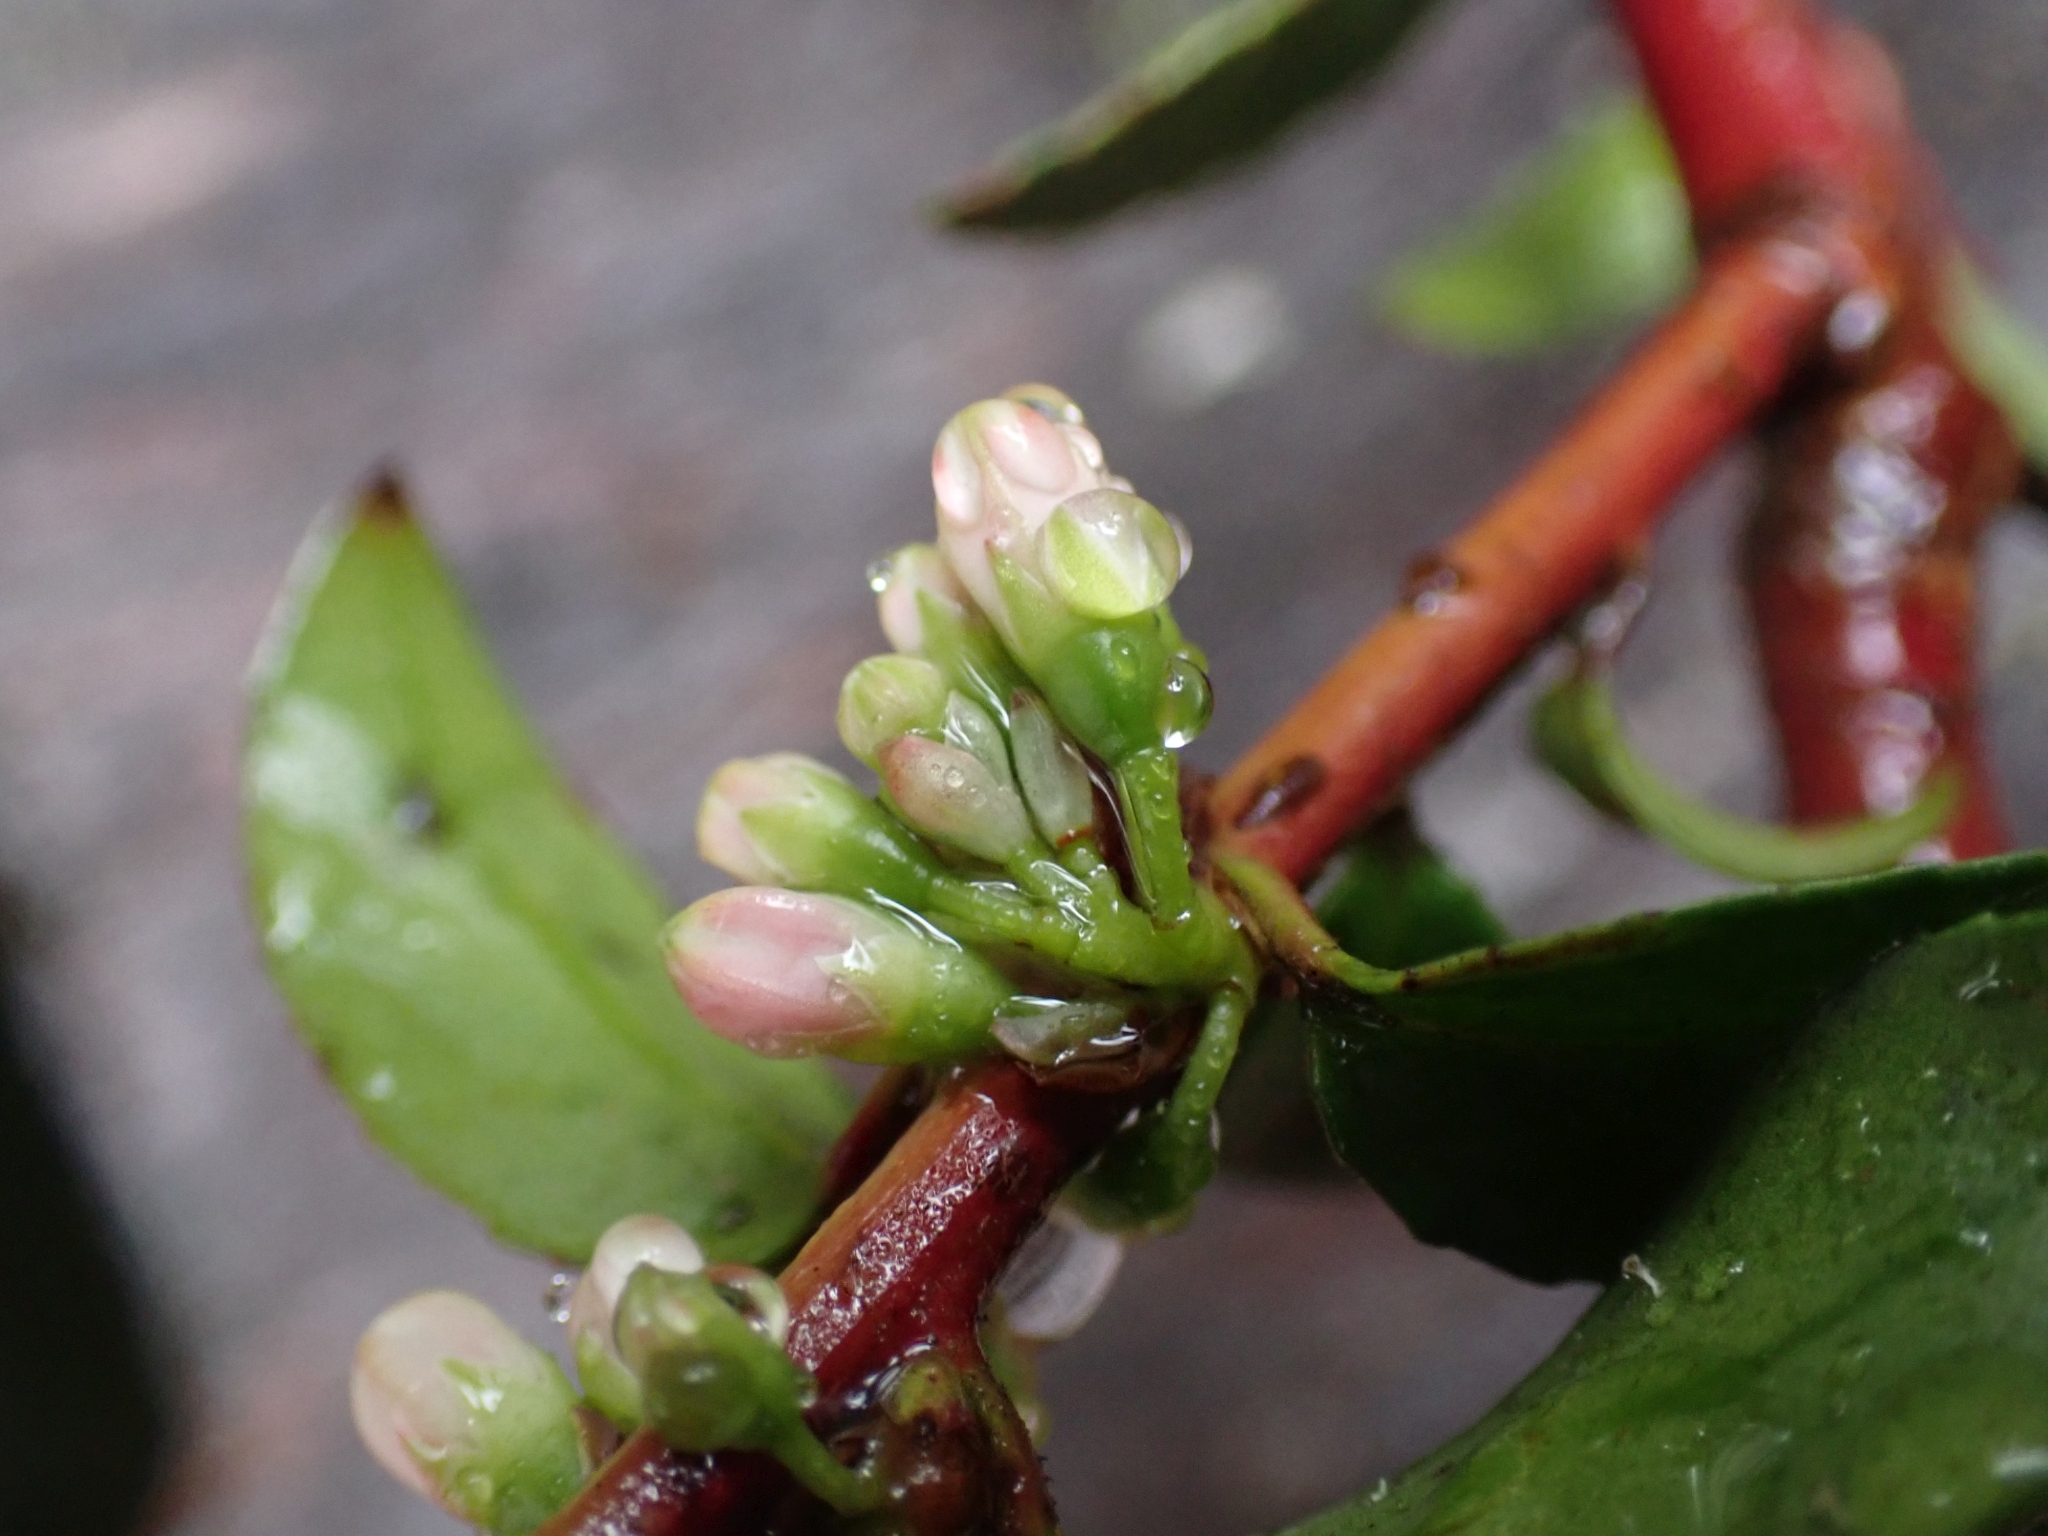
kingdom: Plantae
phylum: Tracheophyta
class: Magnoliopsida
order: Ericales
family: Ericaceae
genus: Vaccinium
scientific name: Vaccinium ovatum
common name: California-huckleberry
